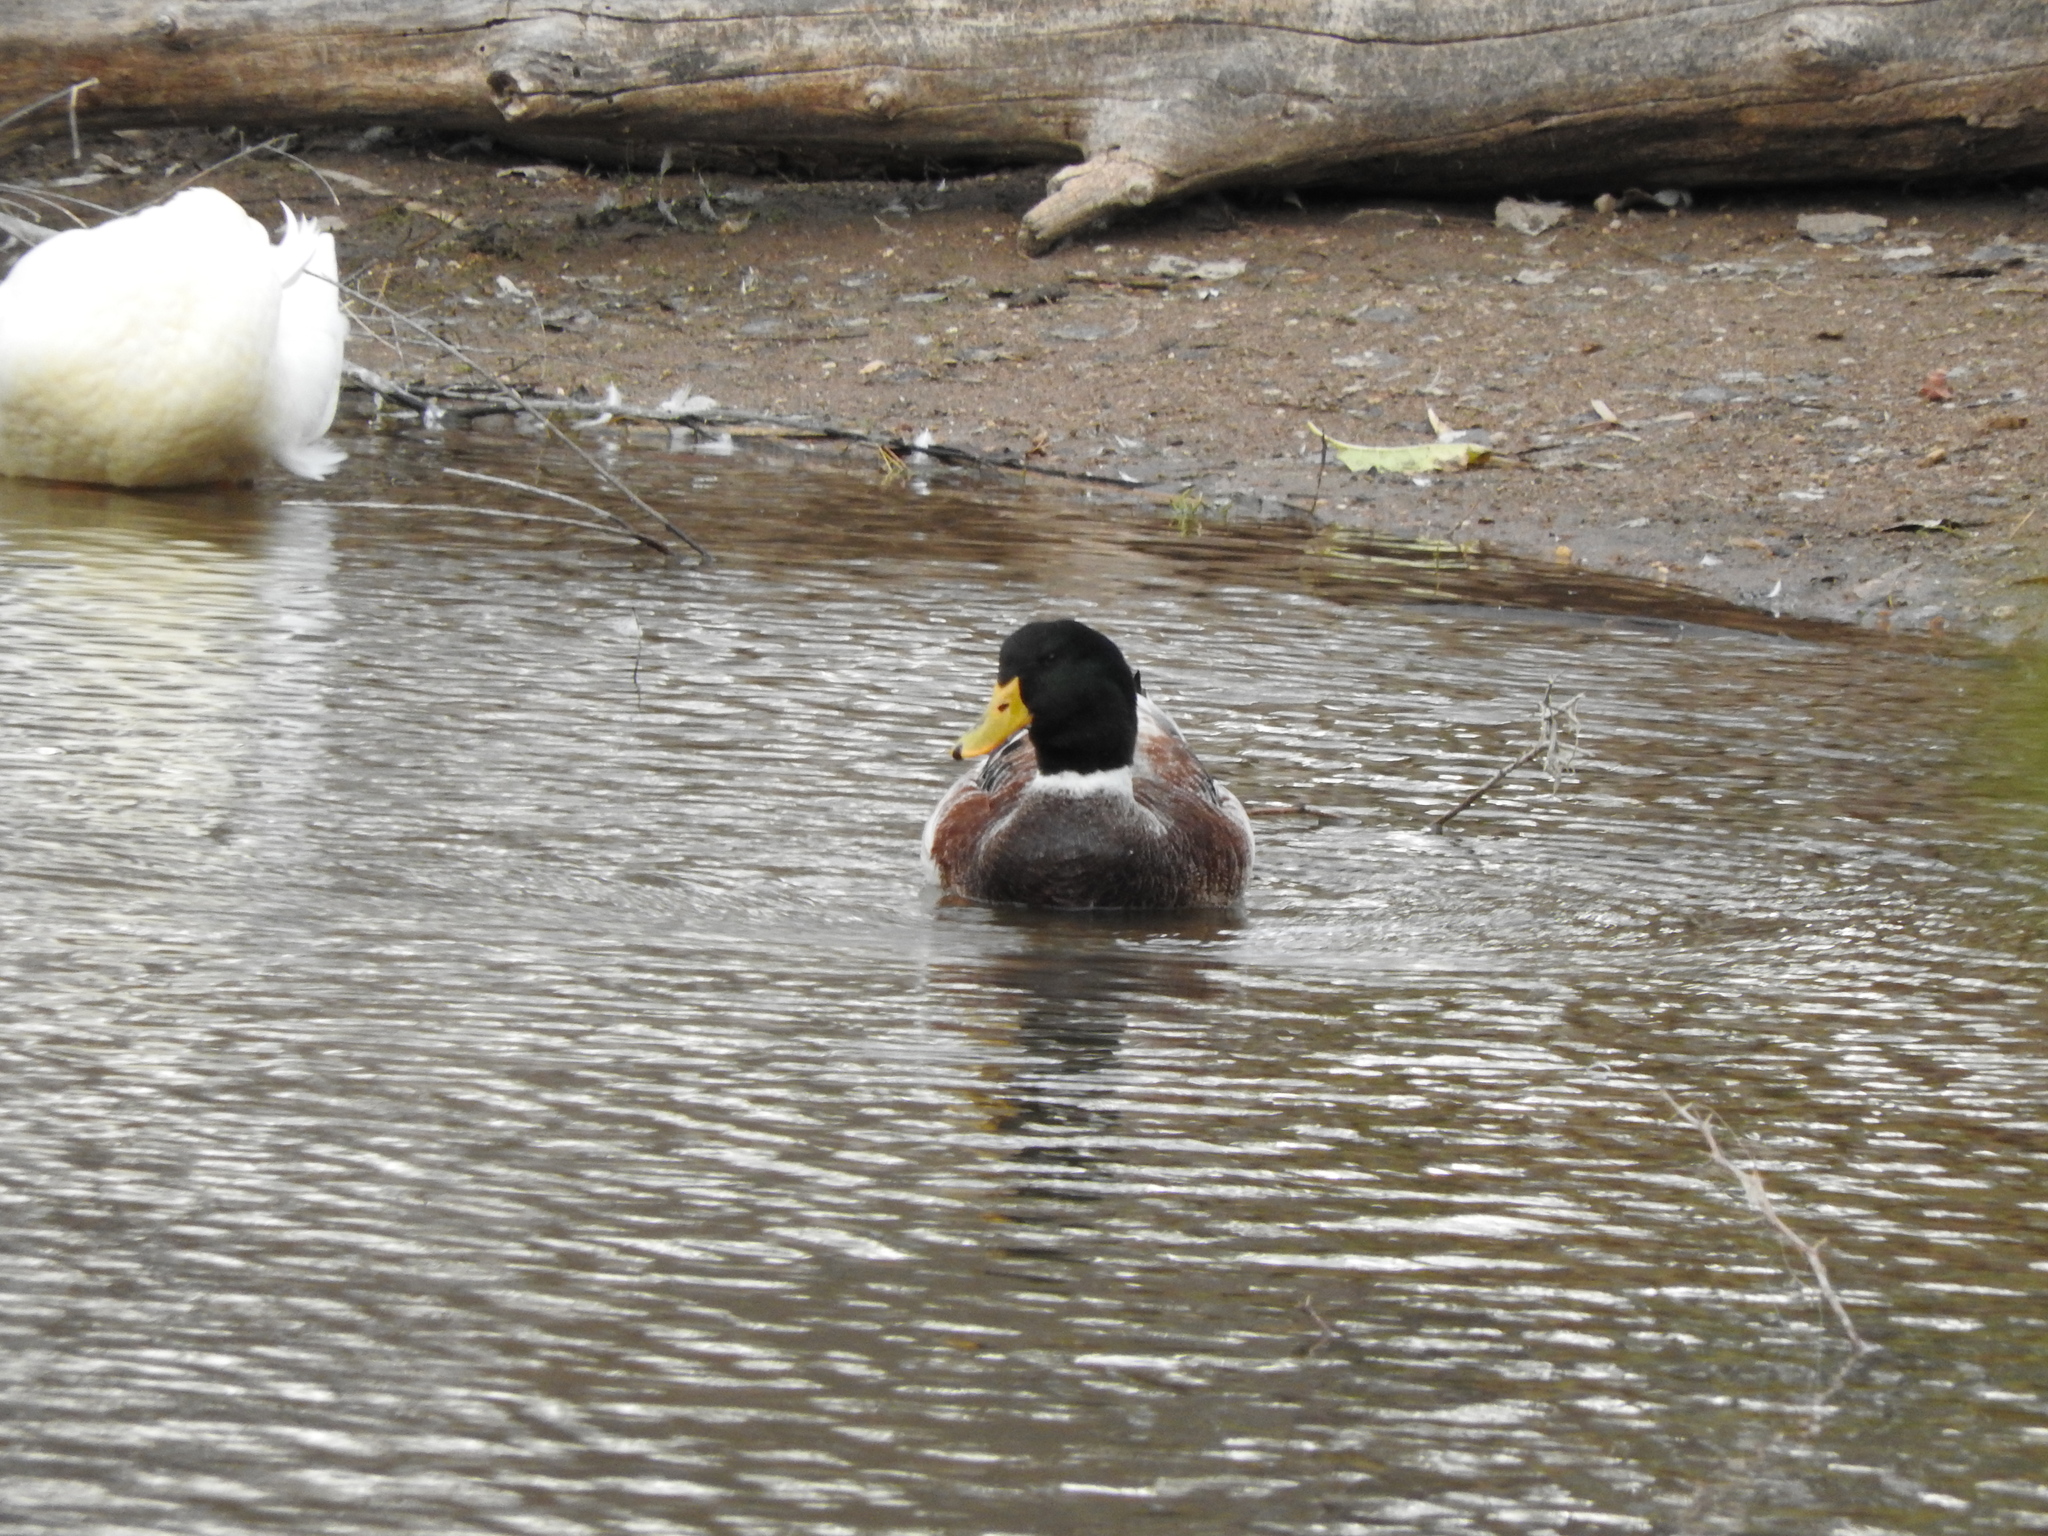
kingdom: Animalia
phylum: Chordata
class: Aves
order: Anseriformes
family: Anatidae
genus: Anas
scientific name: Anas platyrhynchos
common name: Mallard
